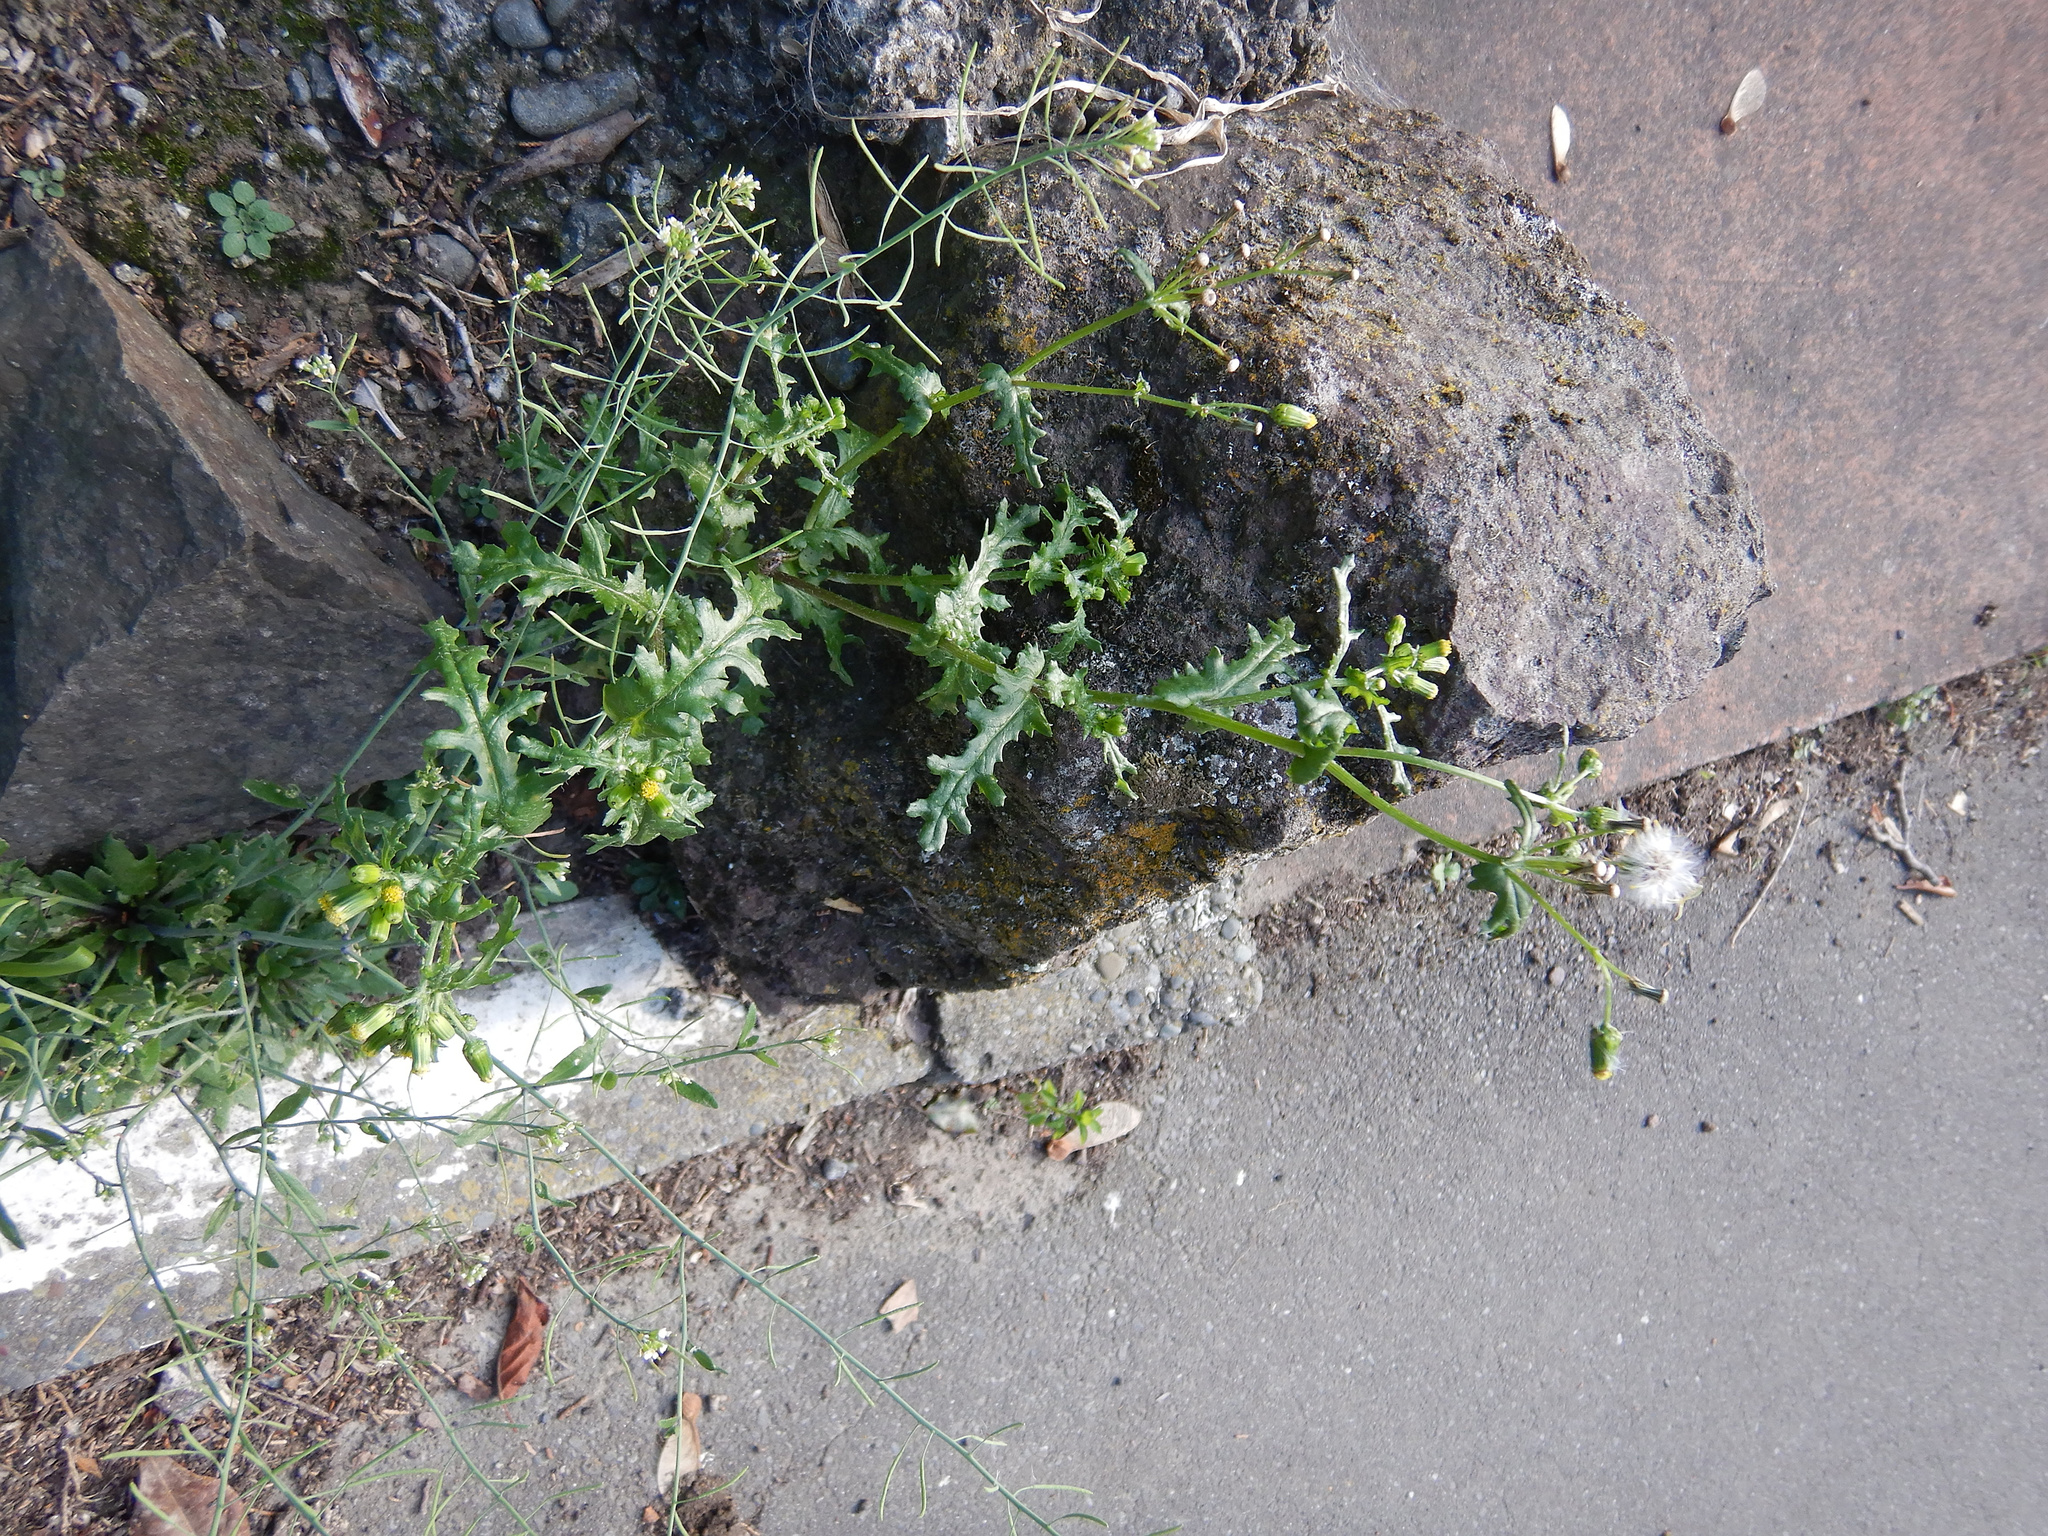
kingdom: Plantae
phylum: Tracheophyta
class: Magnoliopsida
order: Asterales
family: Asteraceae
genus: Senecio
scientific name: Senecio vulgaris
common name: Old-man-in-the-spring
